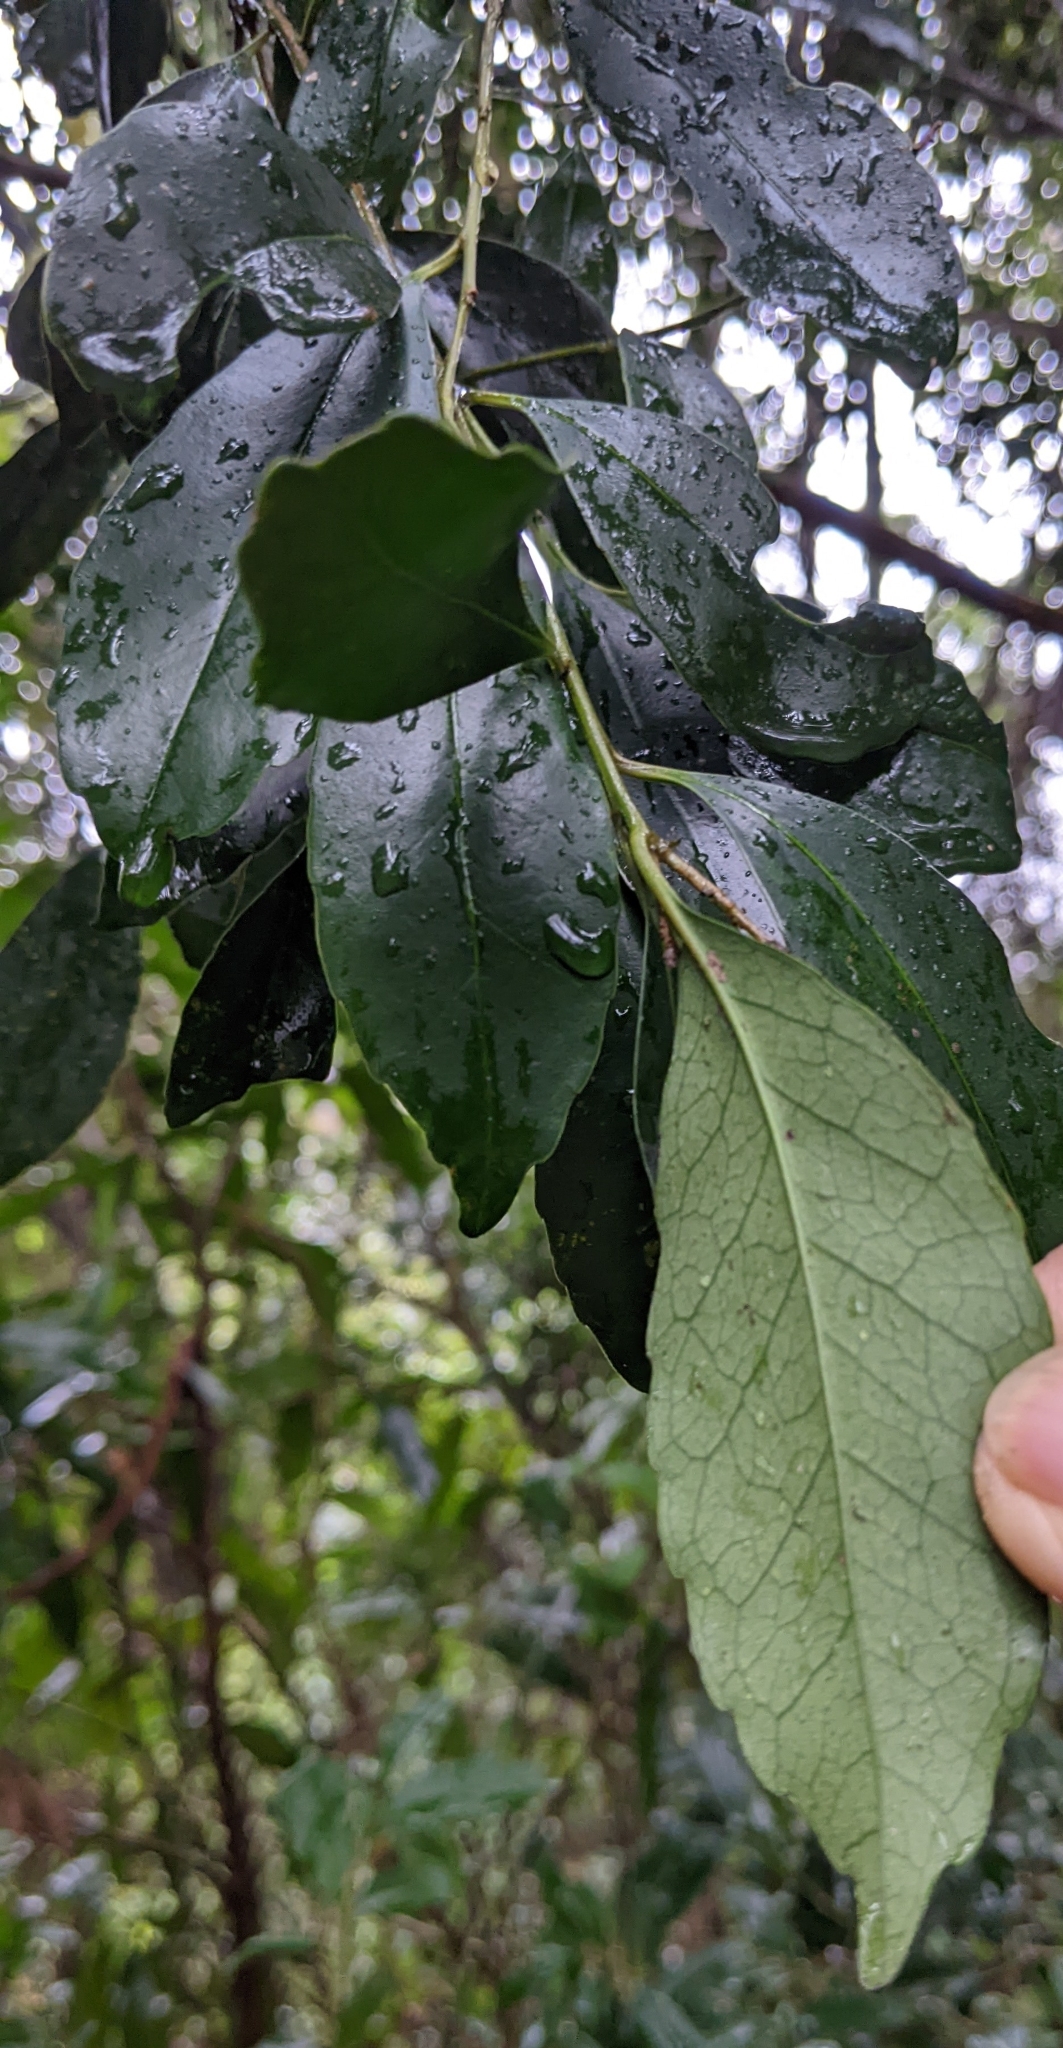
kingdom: Plantae
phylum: Tracheophyta
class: Magnoliopsida
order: Aquifoliales
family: Aquifoliaceae
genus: Ilex
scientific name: Ilex uraiensis
